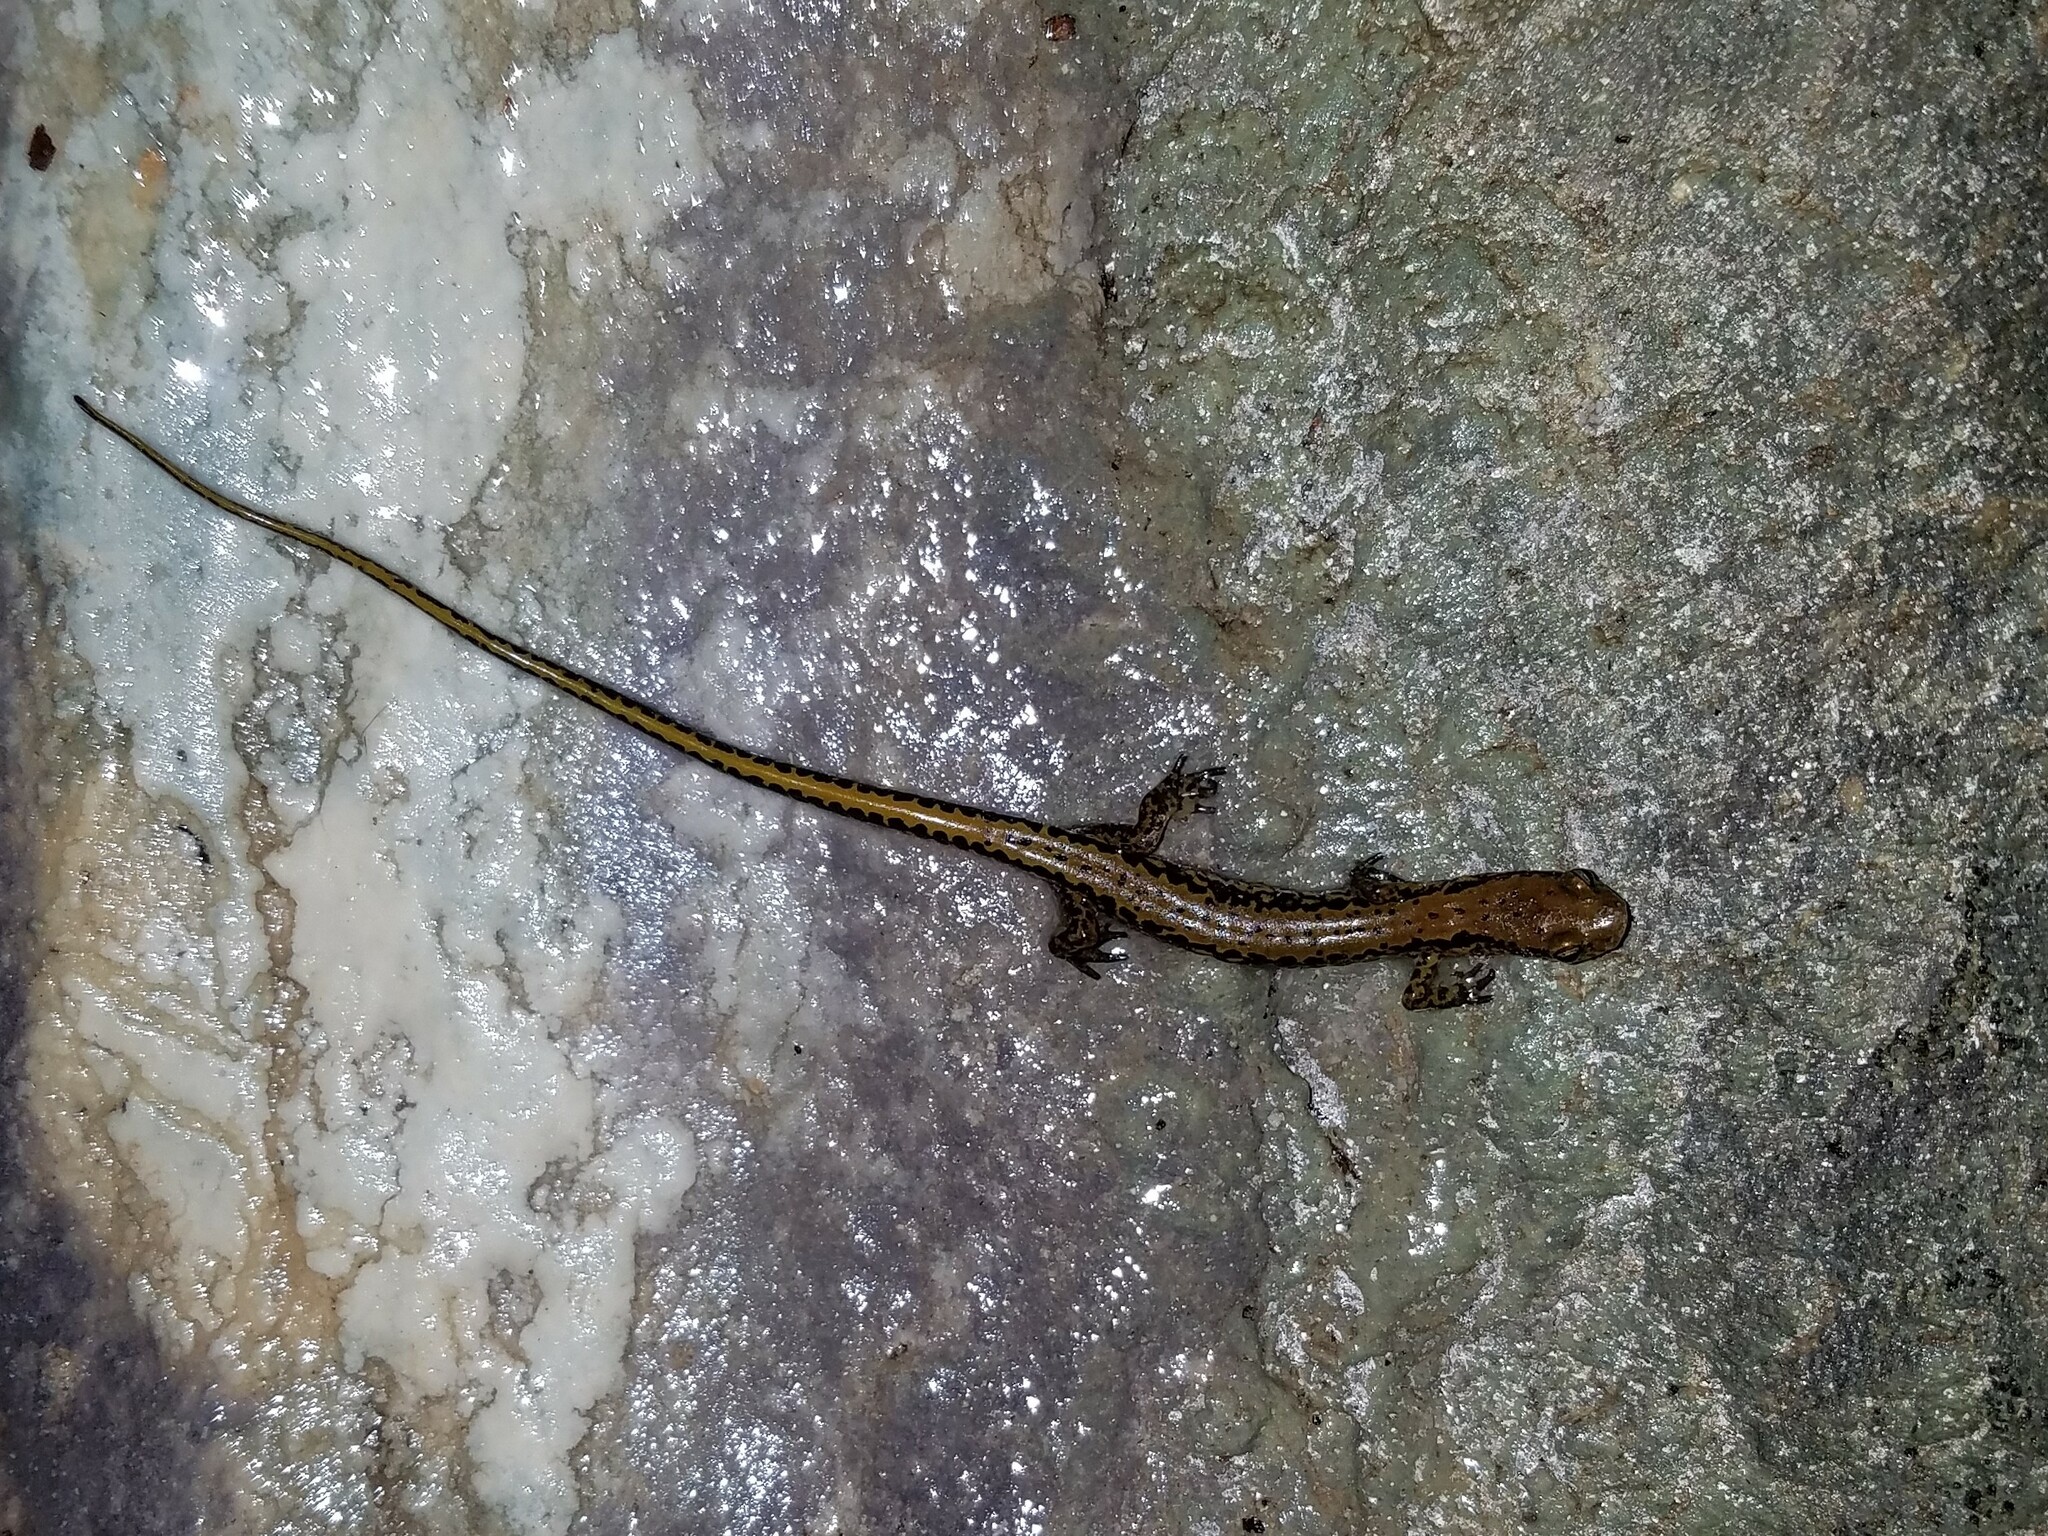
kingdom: Animalia
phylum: Chordata
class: Amphibia
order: Caudata
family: Plethodontidae
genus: Eurycea
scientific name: Eurycea longicauda
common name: Long-tailed salamander
